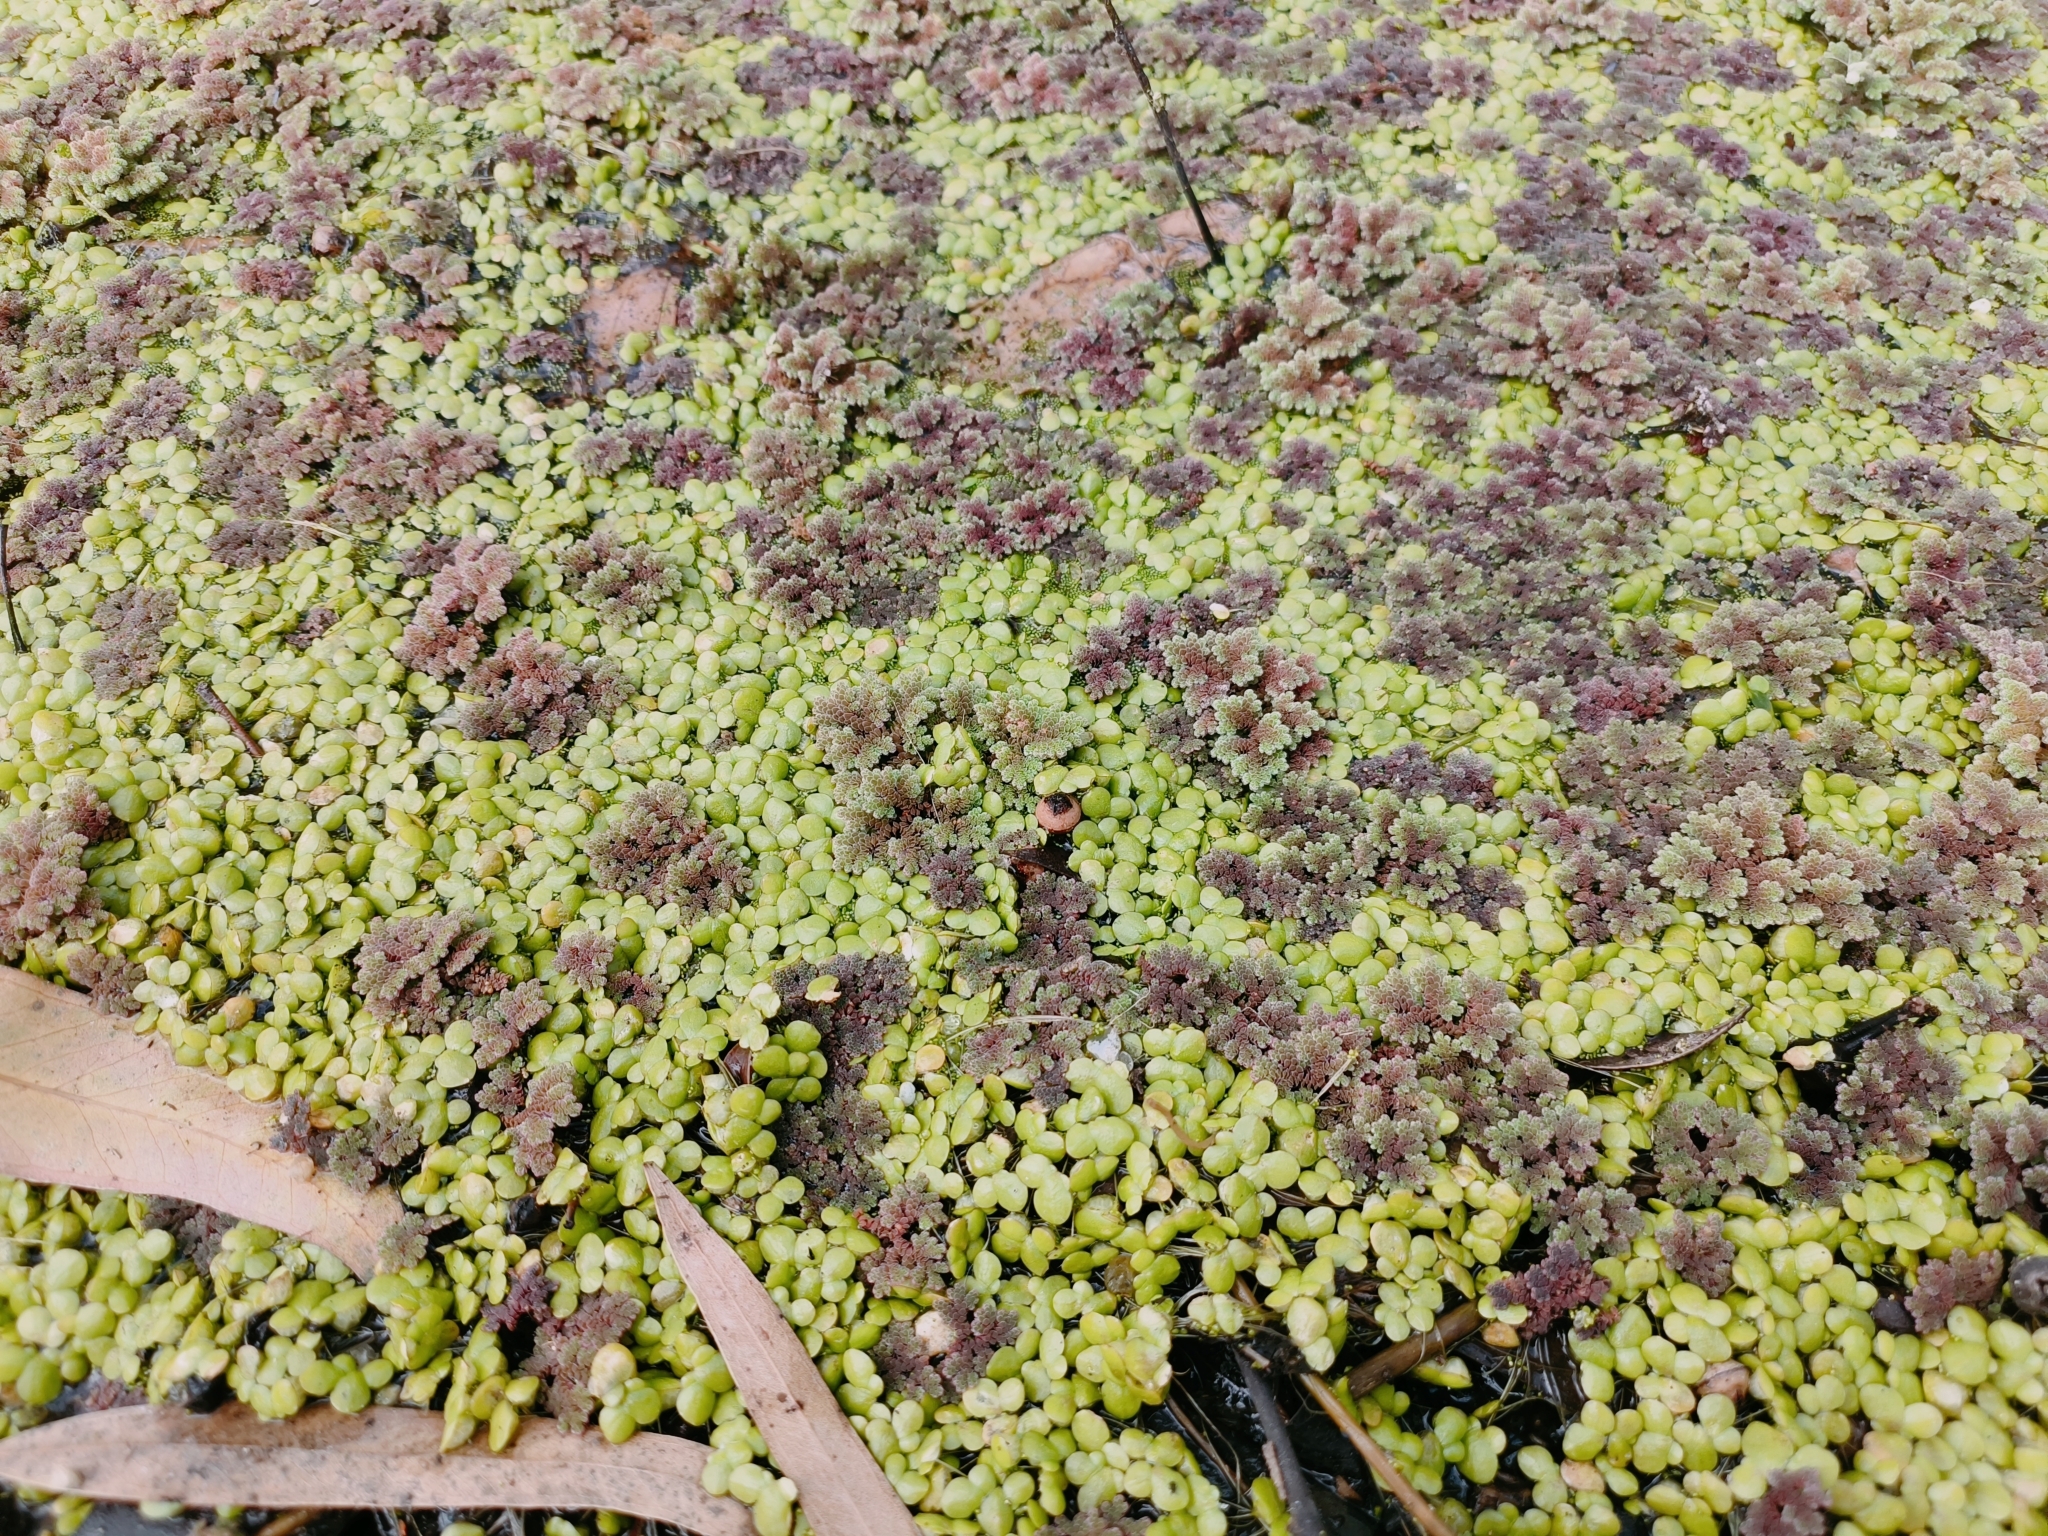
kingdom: Plantae
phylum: Tracheophyta
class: Polypodiopsida
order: Salviniales
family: Salviniaceae
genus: Azolla
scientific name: Azolla filiculoides
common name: Water fern
